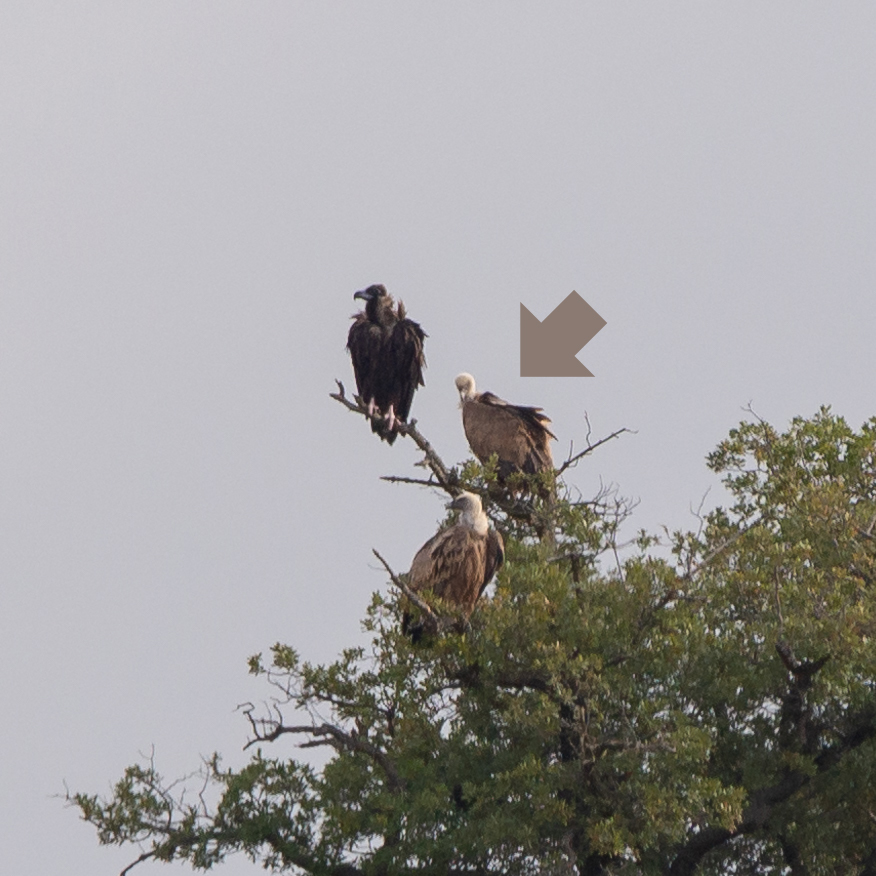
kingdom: Animalia
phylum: Chordata
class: Aves
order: Accipitriformes
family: Accipitridae
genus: Gyps
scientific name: Gyps fulvus
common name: Griffon vulture
